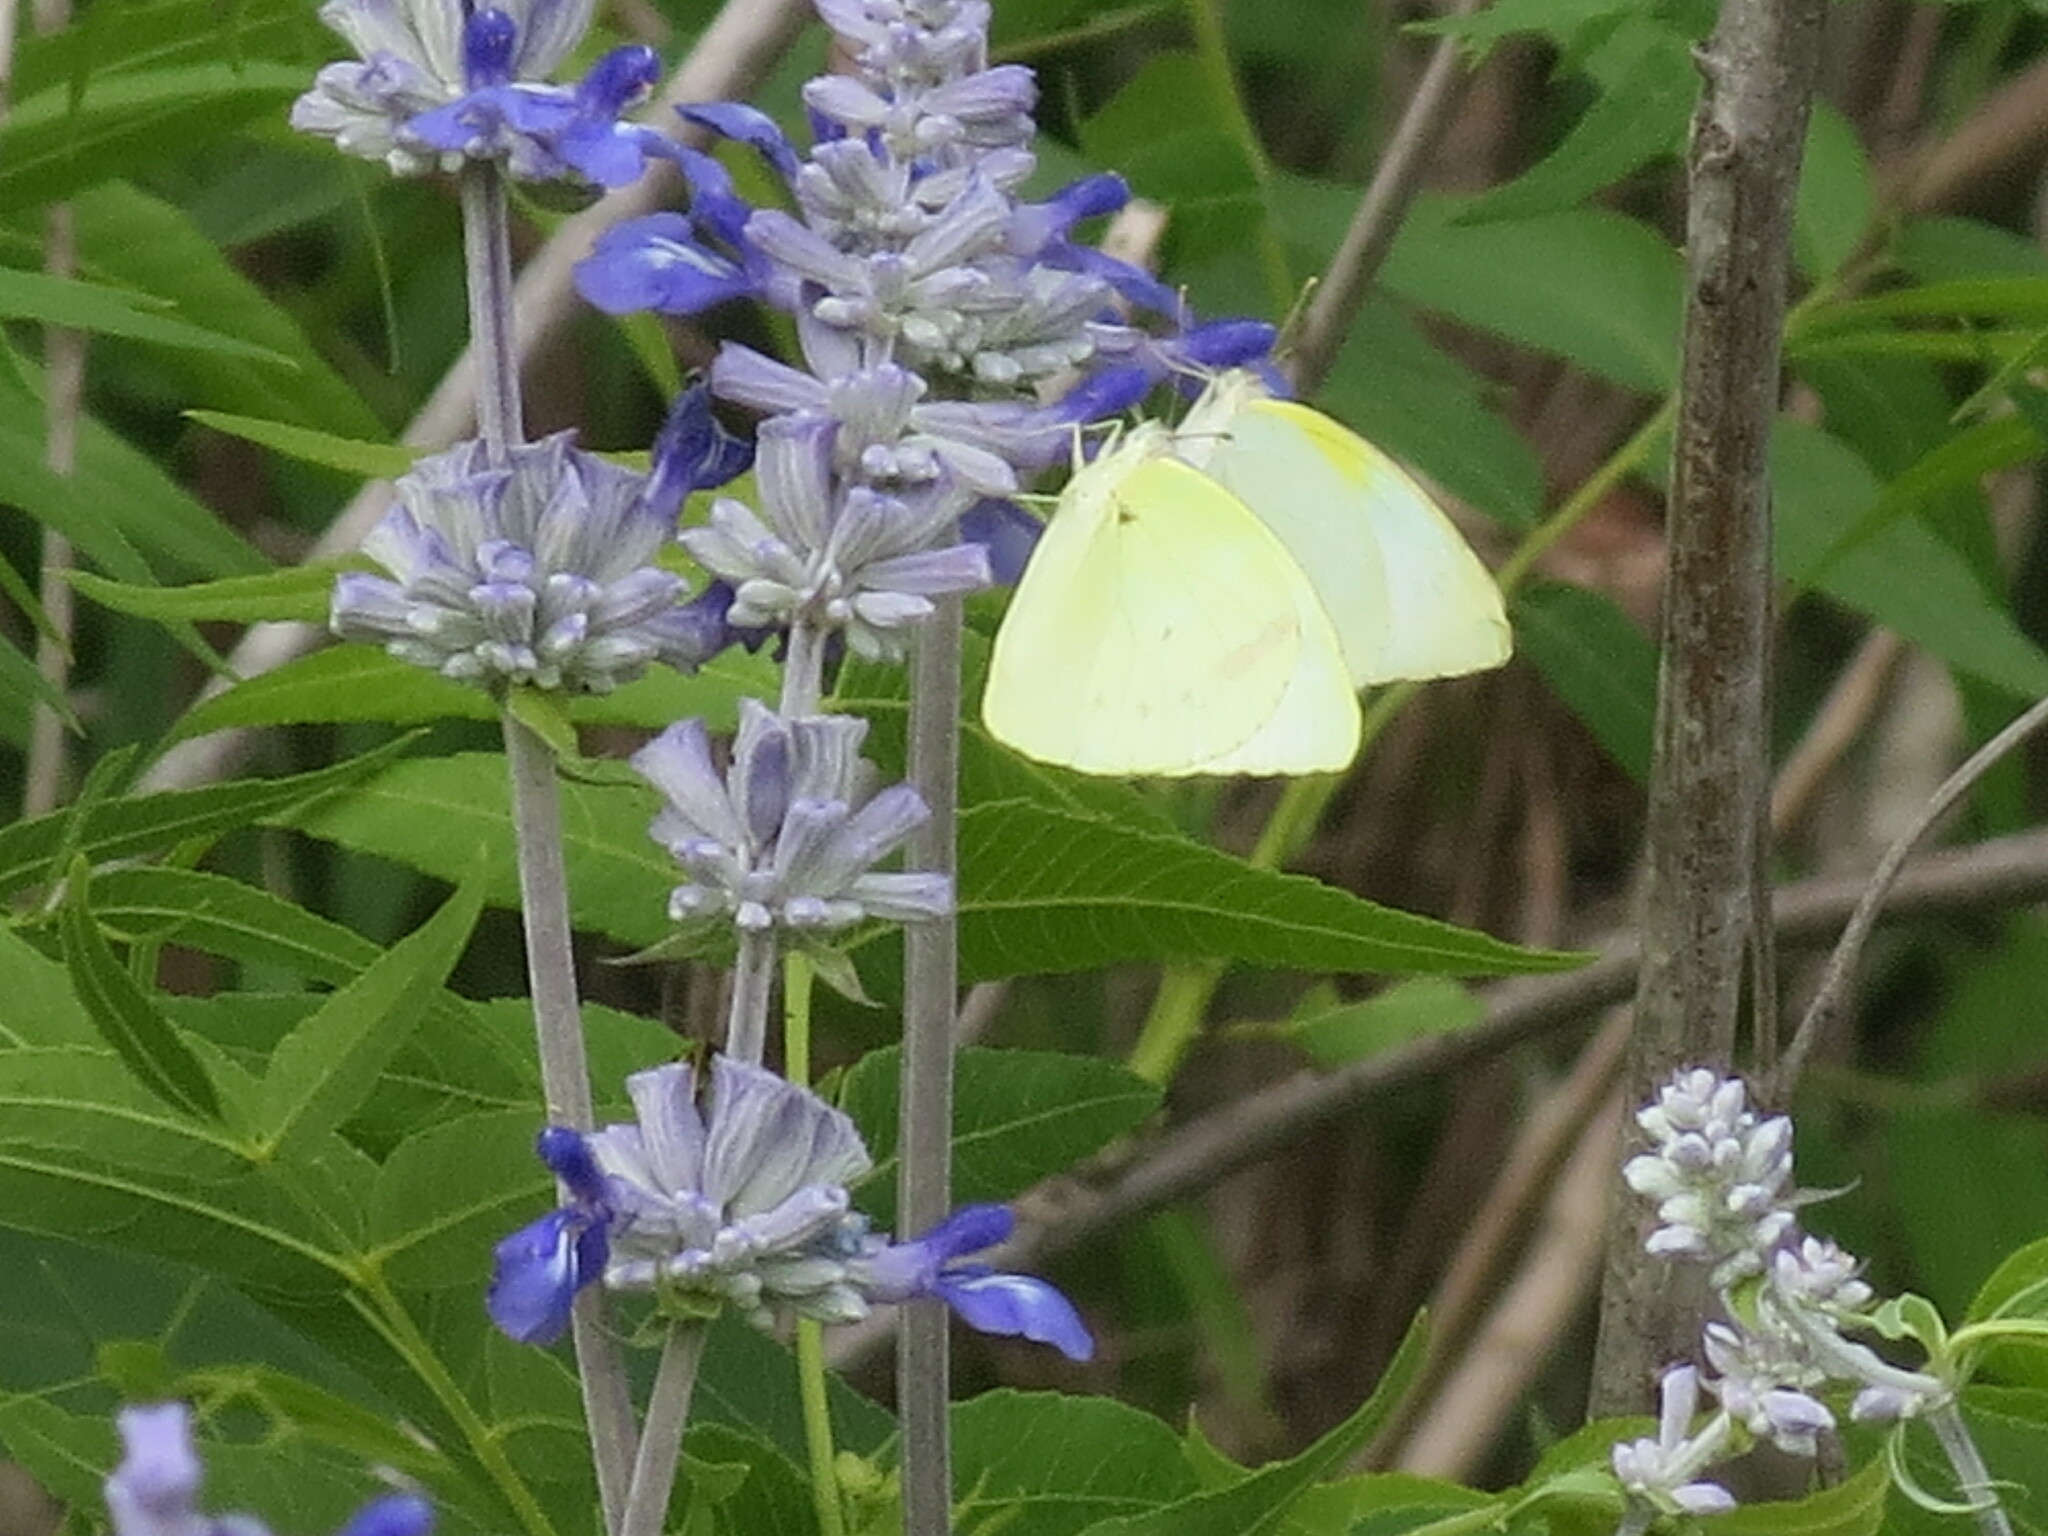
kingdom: Animalia
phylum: Arthropoda
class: Insecta
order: Lepidoptera
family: Pieridae
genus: Kricogonia
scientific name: Kricogonia lyside
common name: Guayacan sulphur,
